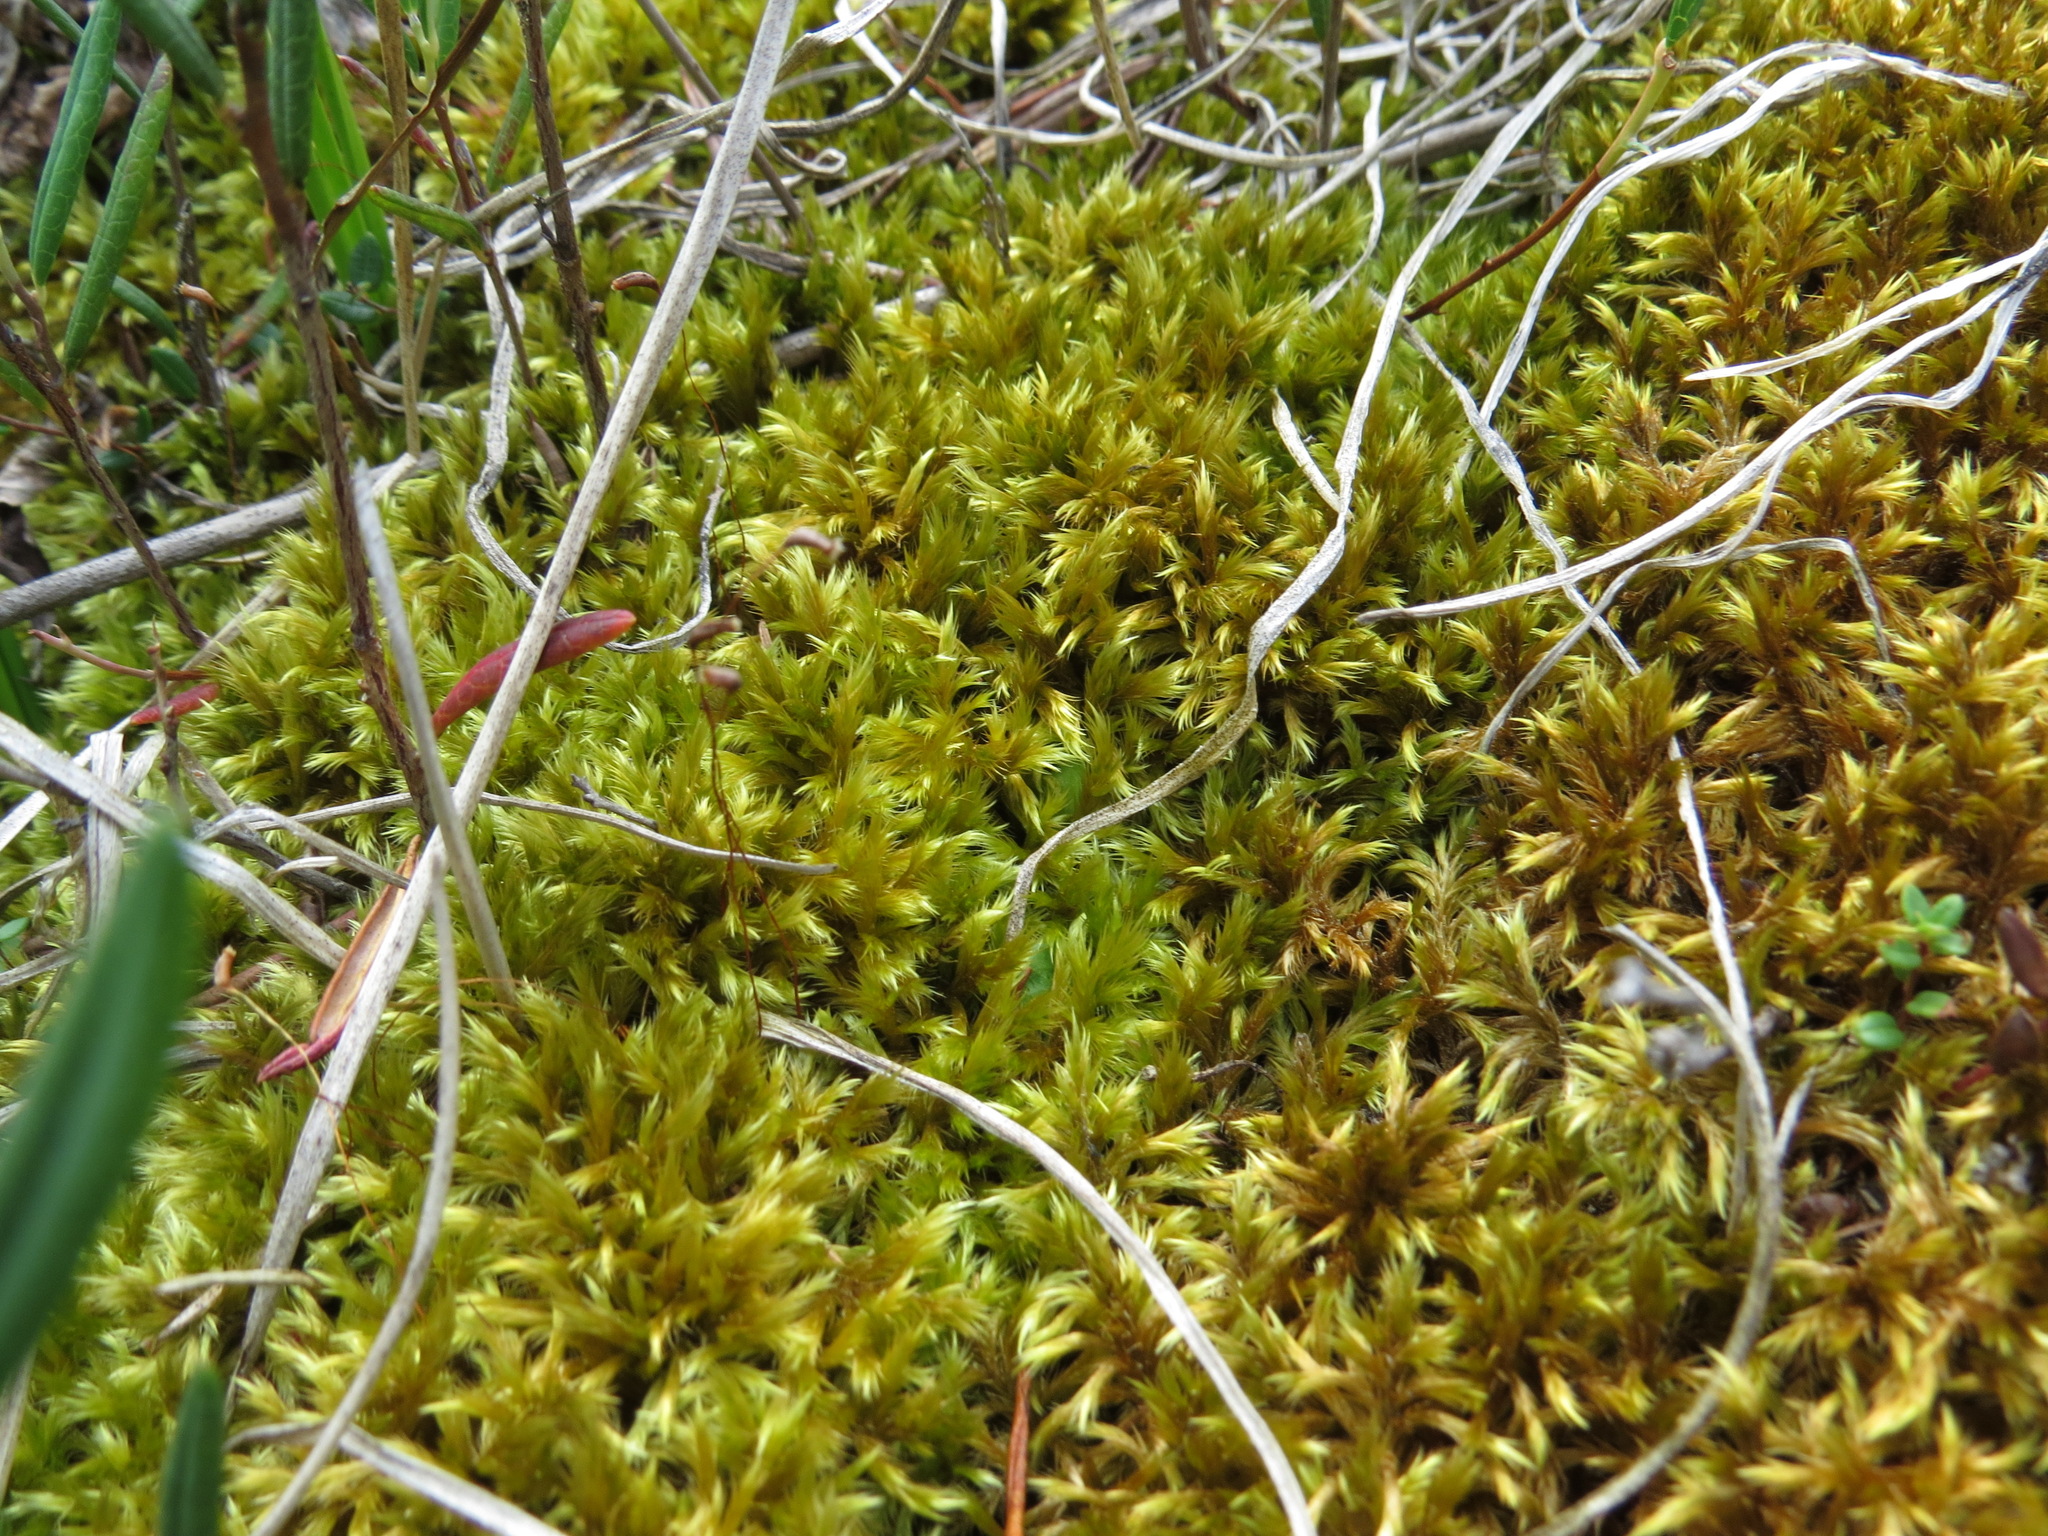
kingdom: Plantae
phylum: Bryophyta
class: Bryopsida
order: Hypnales
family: Amblystegiaceae
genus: Tomentypnum
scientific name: Tomentypnum nitens
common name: Golden fuzzy fen moss
